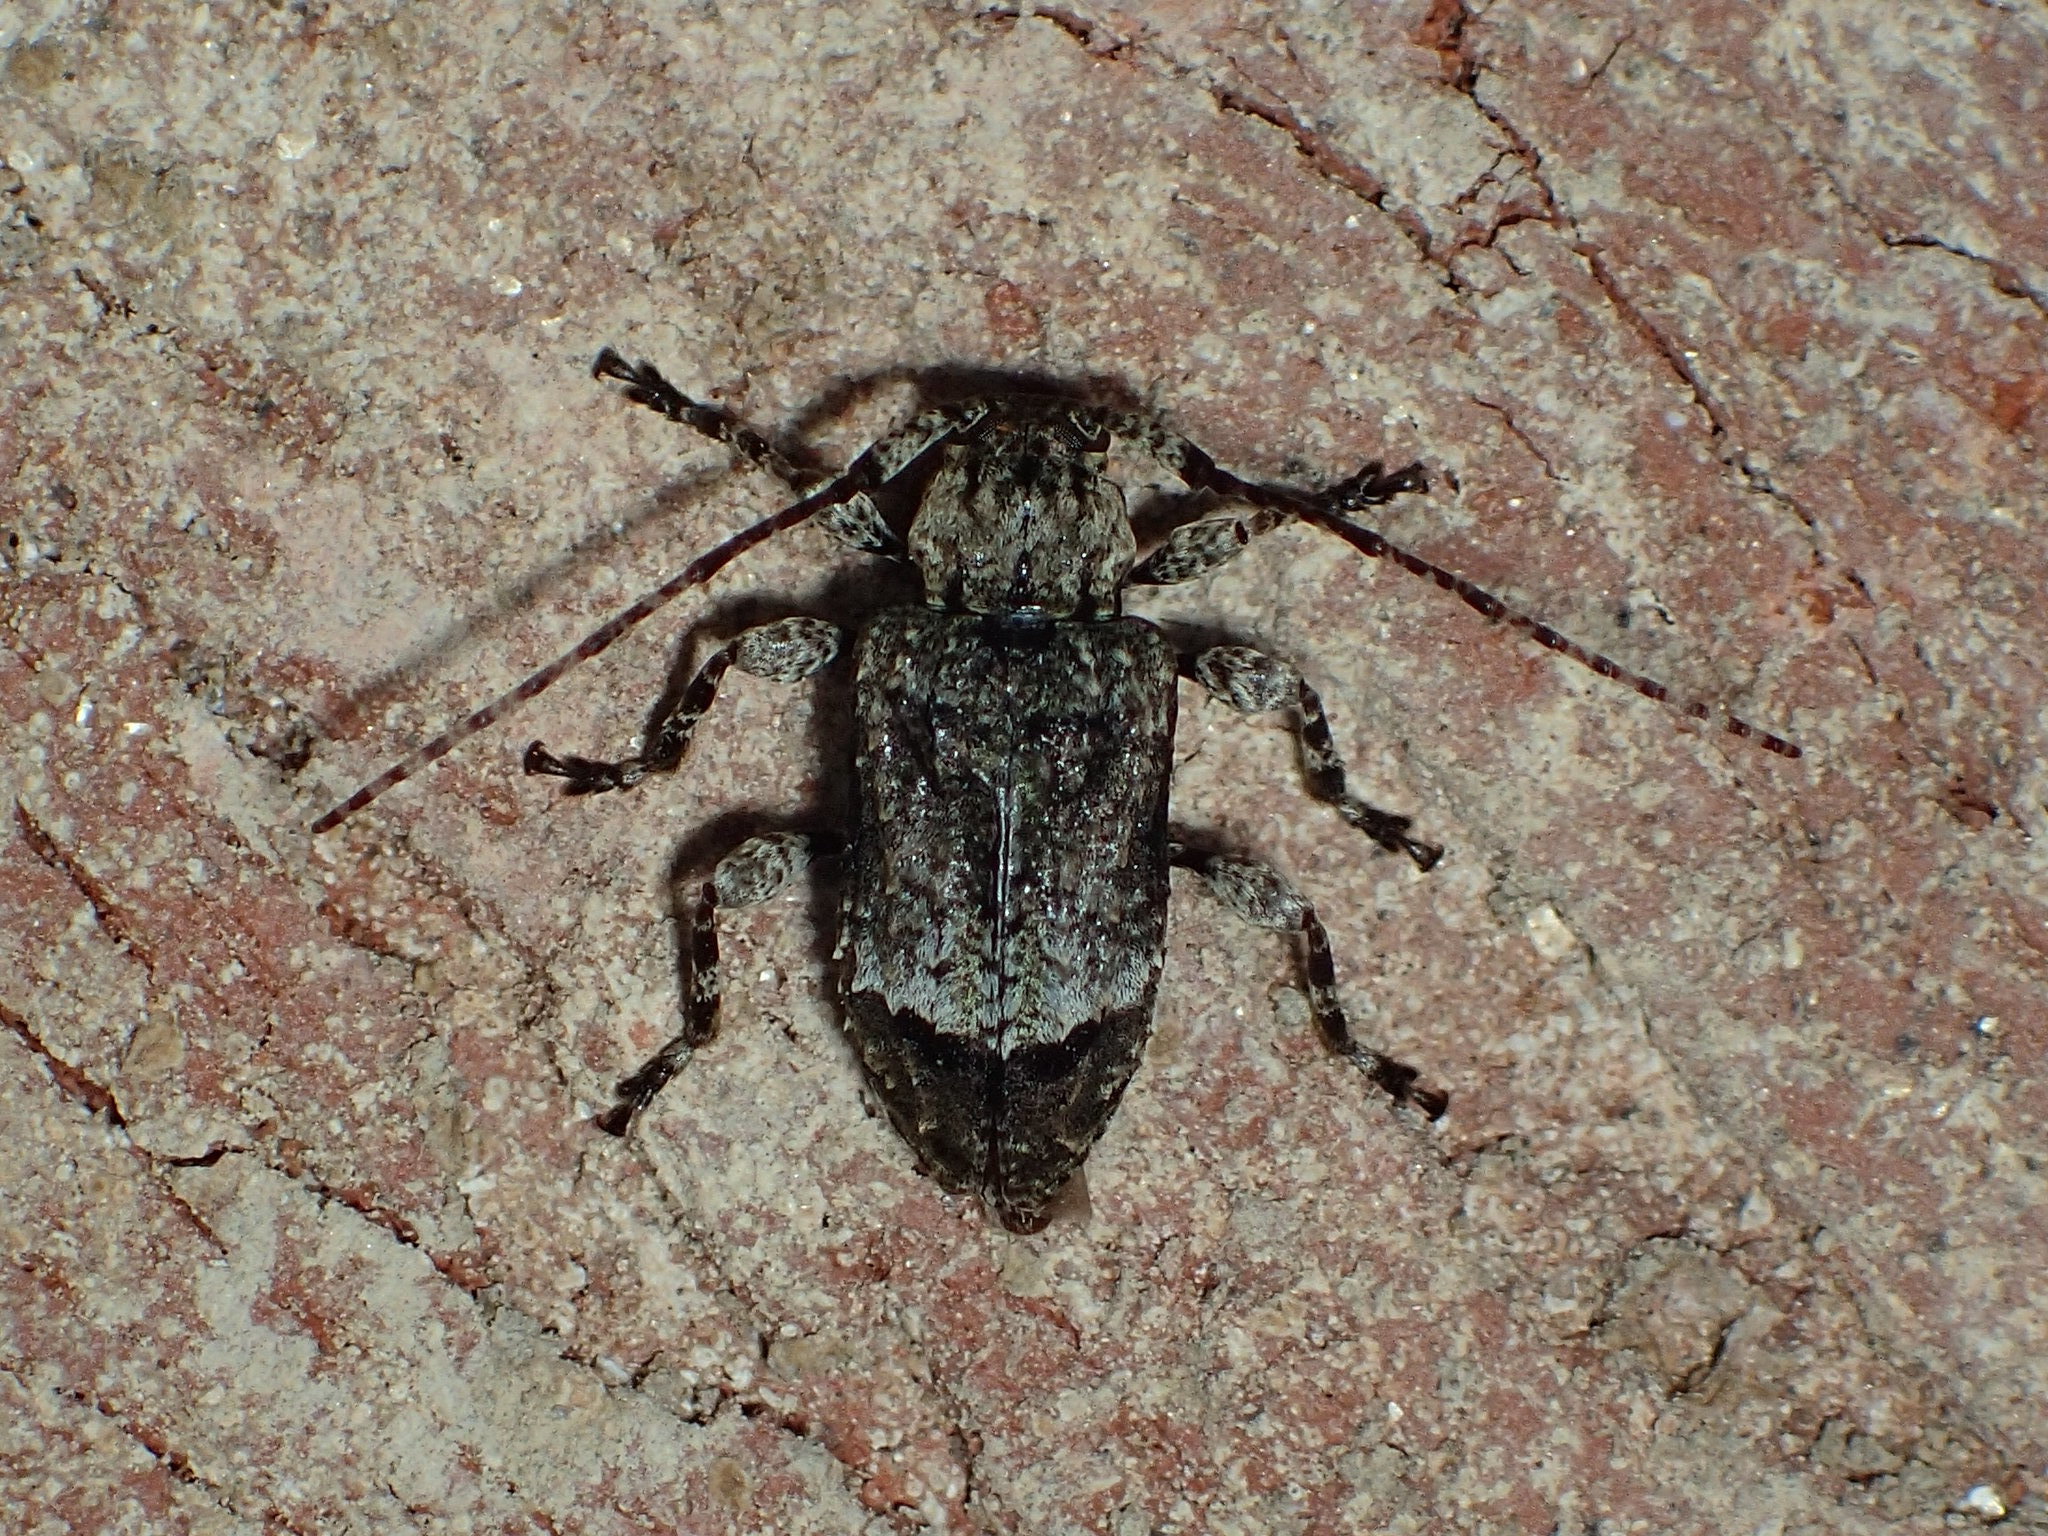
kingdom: Animalia
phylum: Arthropoda
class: Insecta
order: Coleoptera
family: Cerambycidae
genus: Leptostylus
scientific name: Leptostylus transversus
